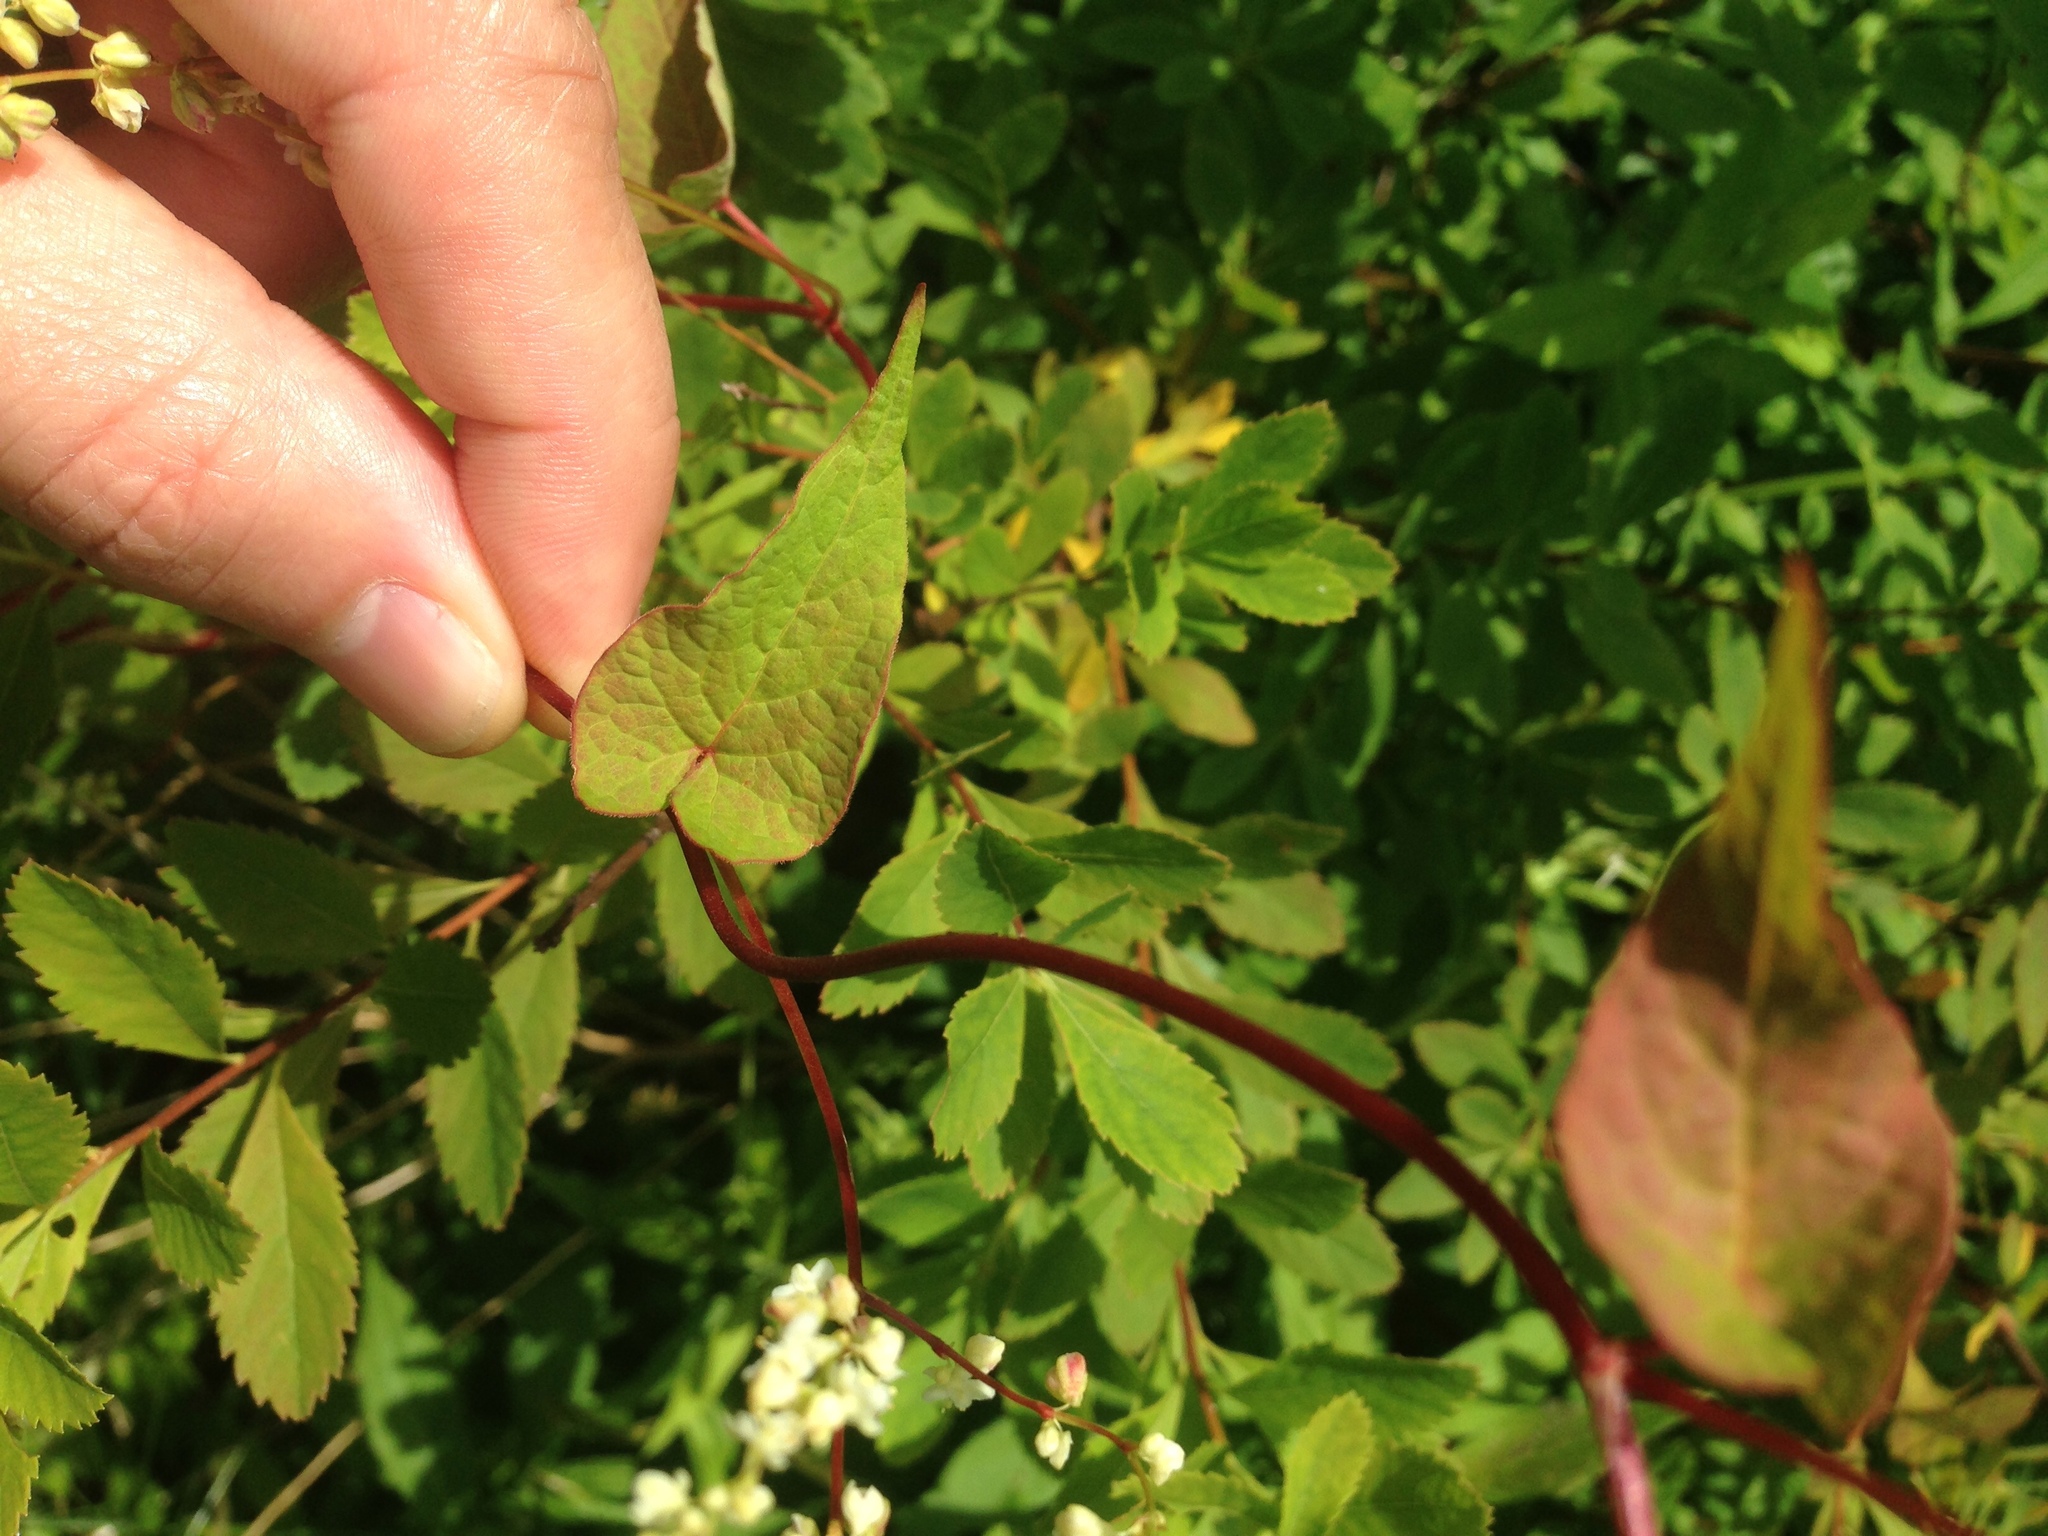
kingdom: Plantae
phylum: Tracheophyta
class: Magnoliopsida
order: Caryophyllales
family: Polygonaceae
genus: Fallopia
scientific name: Fallopia scandens
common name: Climbing false buckwheat
